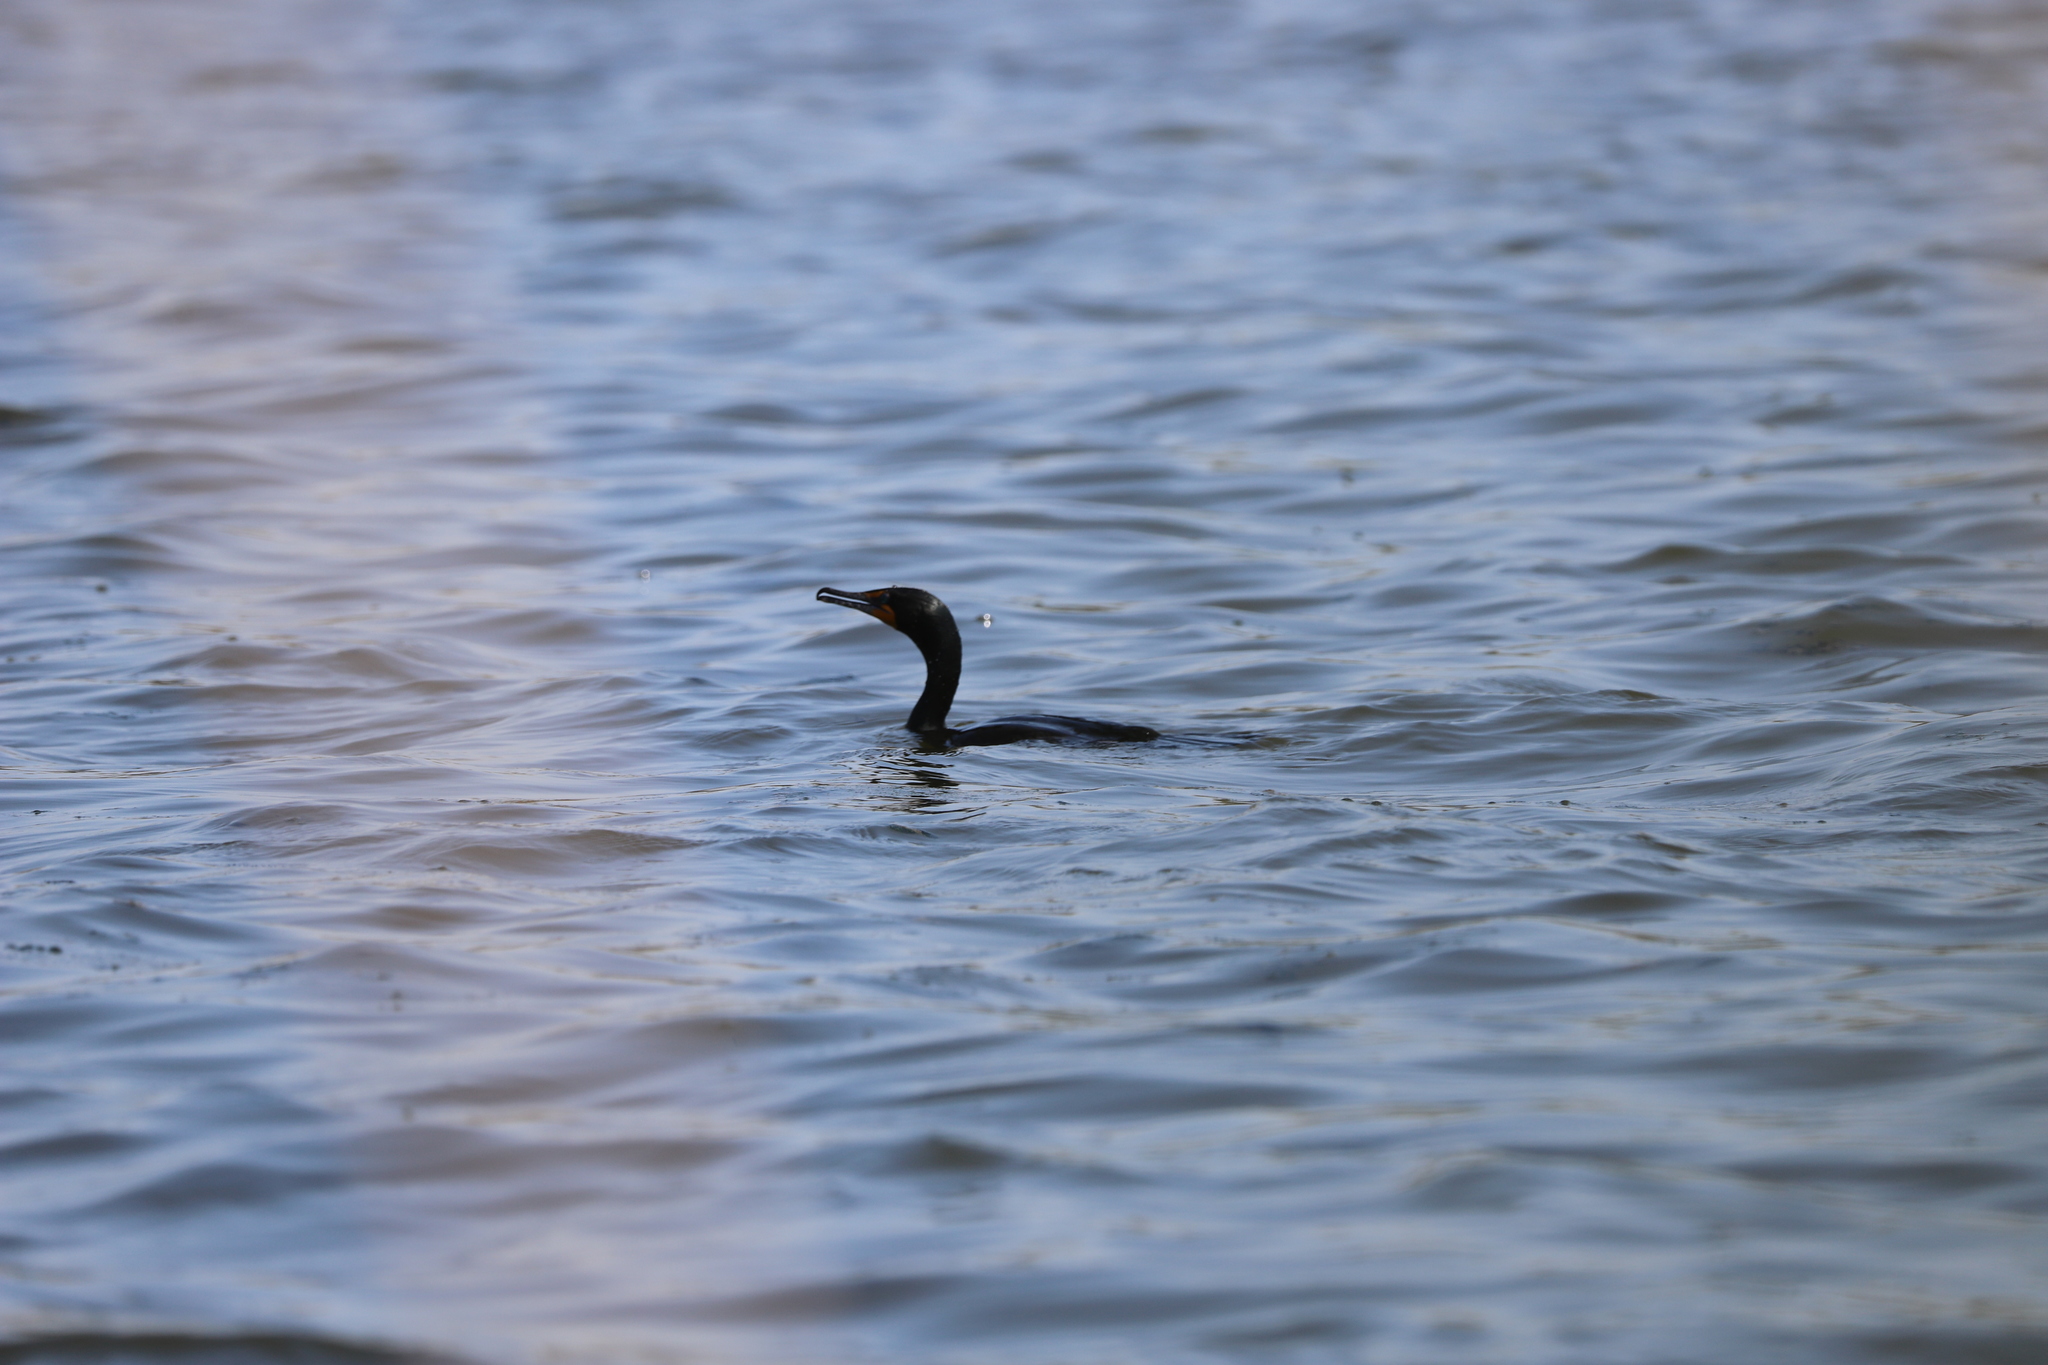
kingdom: Animalia
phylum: Chordata
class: Aves
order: Suliformes
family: Phalacrocoracidae
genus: Phalacrocorax
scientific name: Phalacrocorax auritus
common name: Double-crested cormorant
